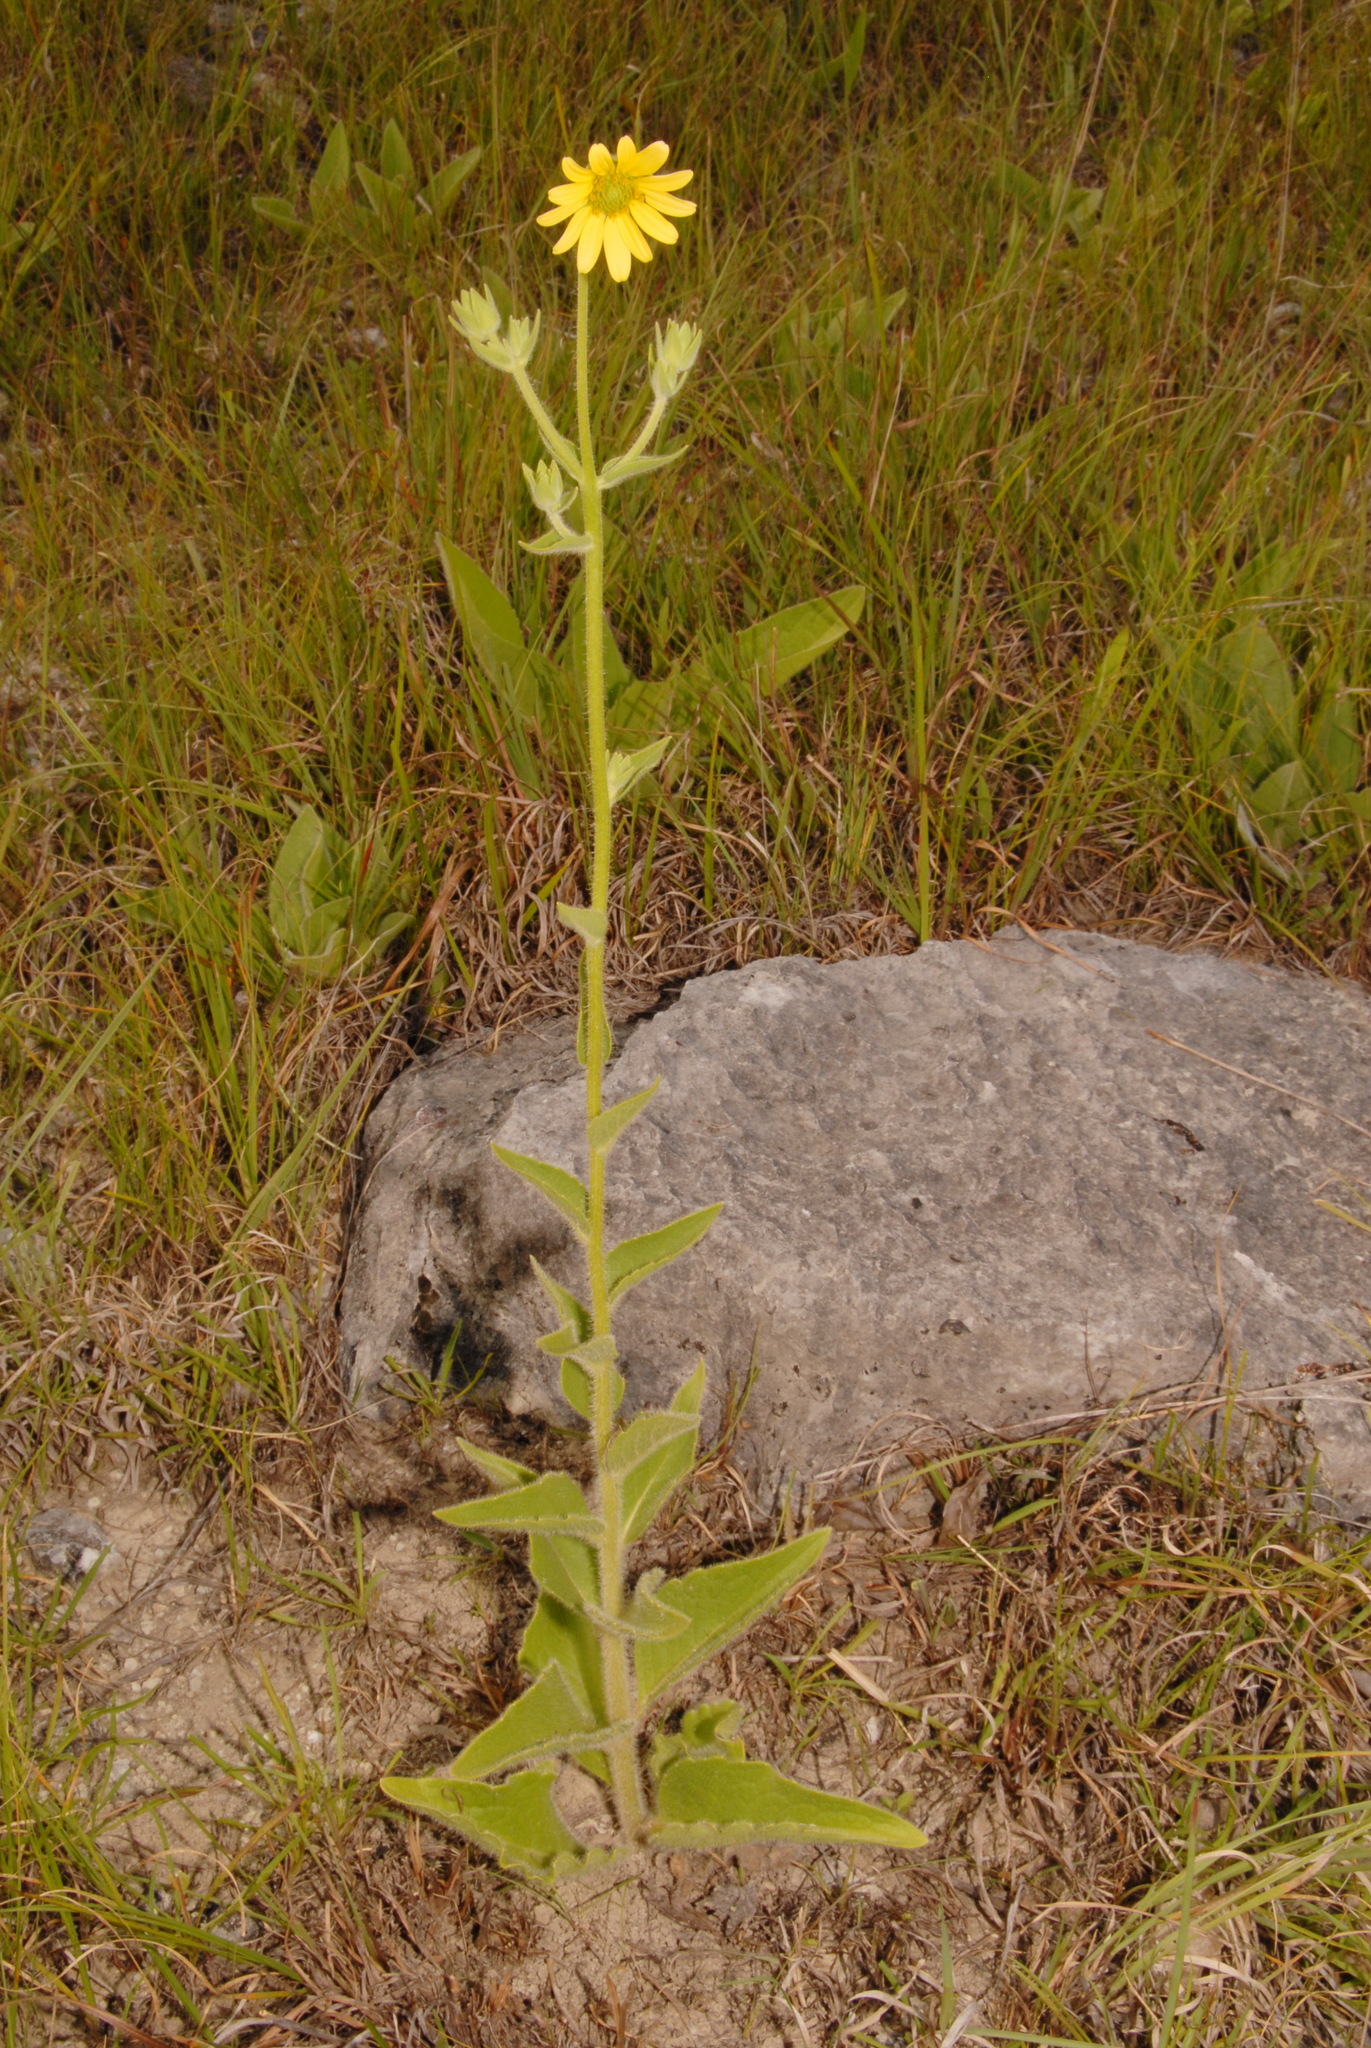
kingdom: Plantae
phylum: Tracheophyta
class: Magnoliopsida
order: Asterales
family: Asteraceae
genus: Silphium
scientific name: Silphium mohrii
